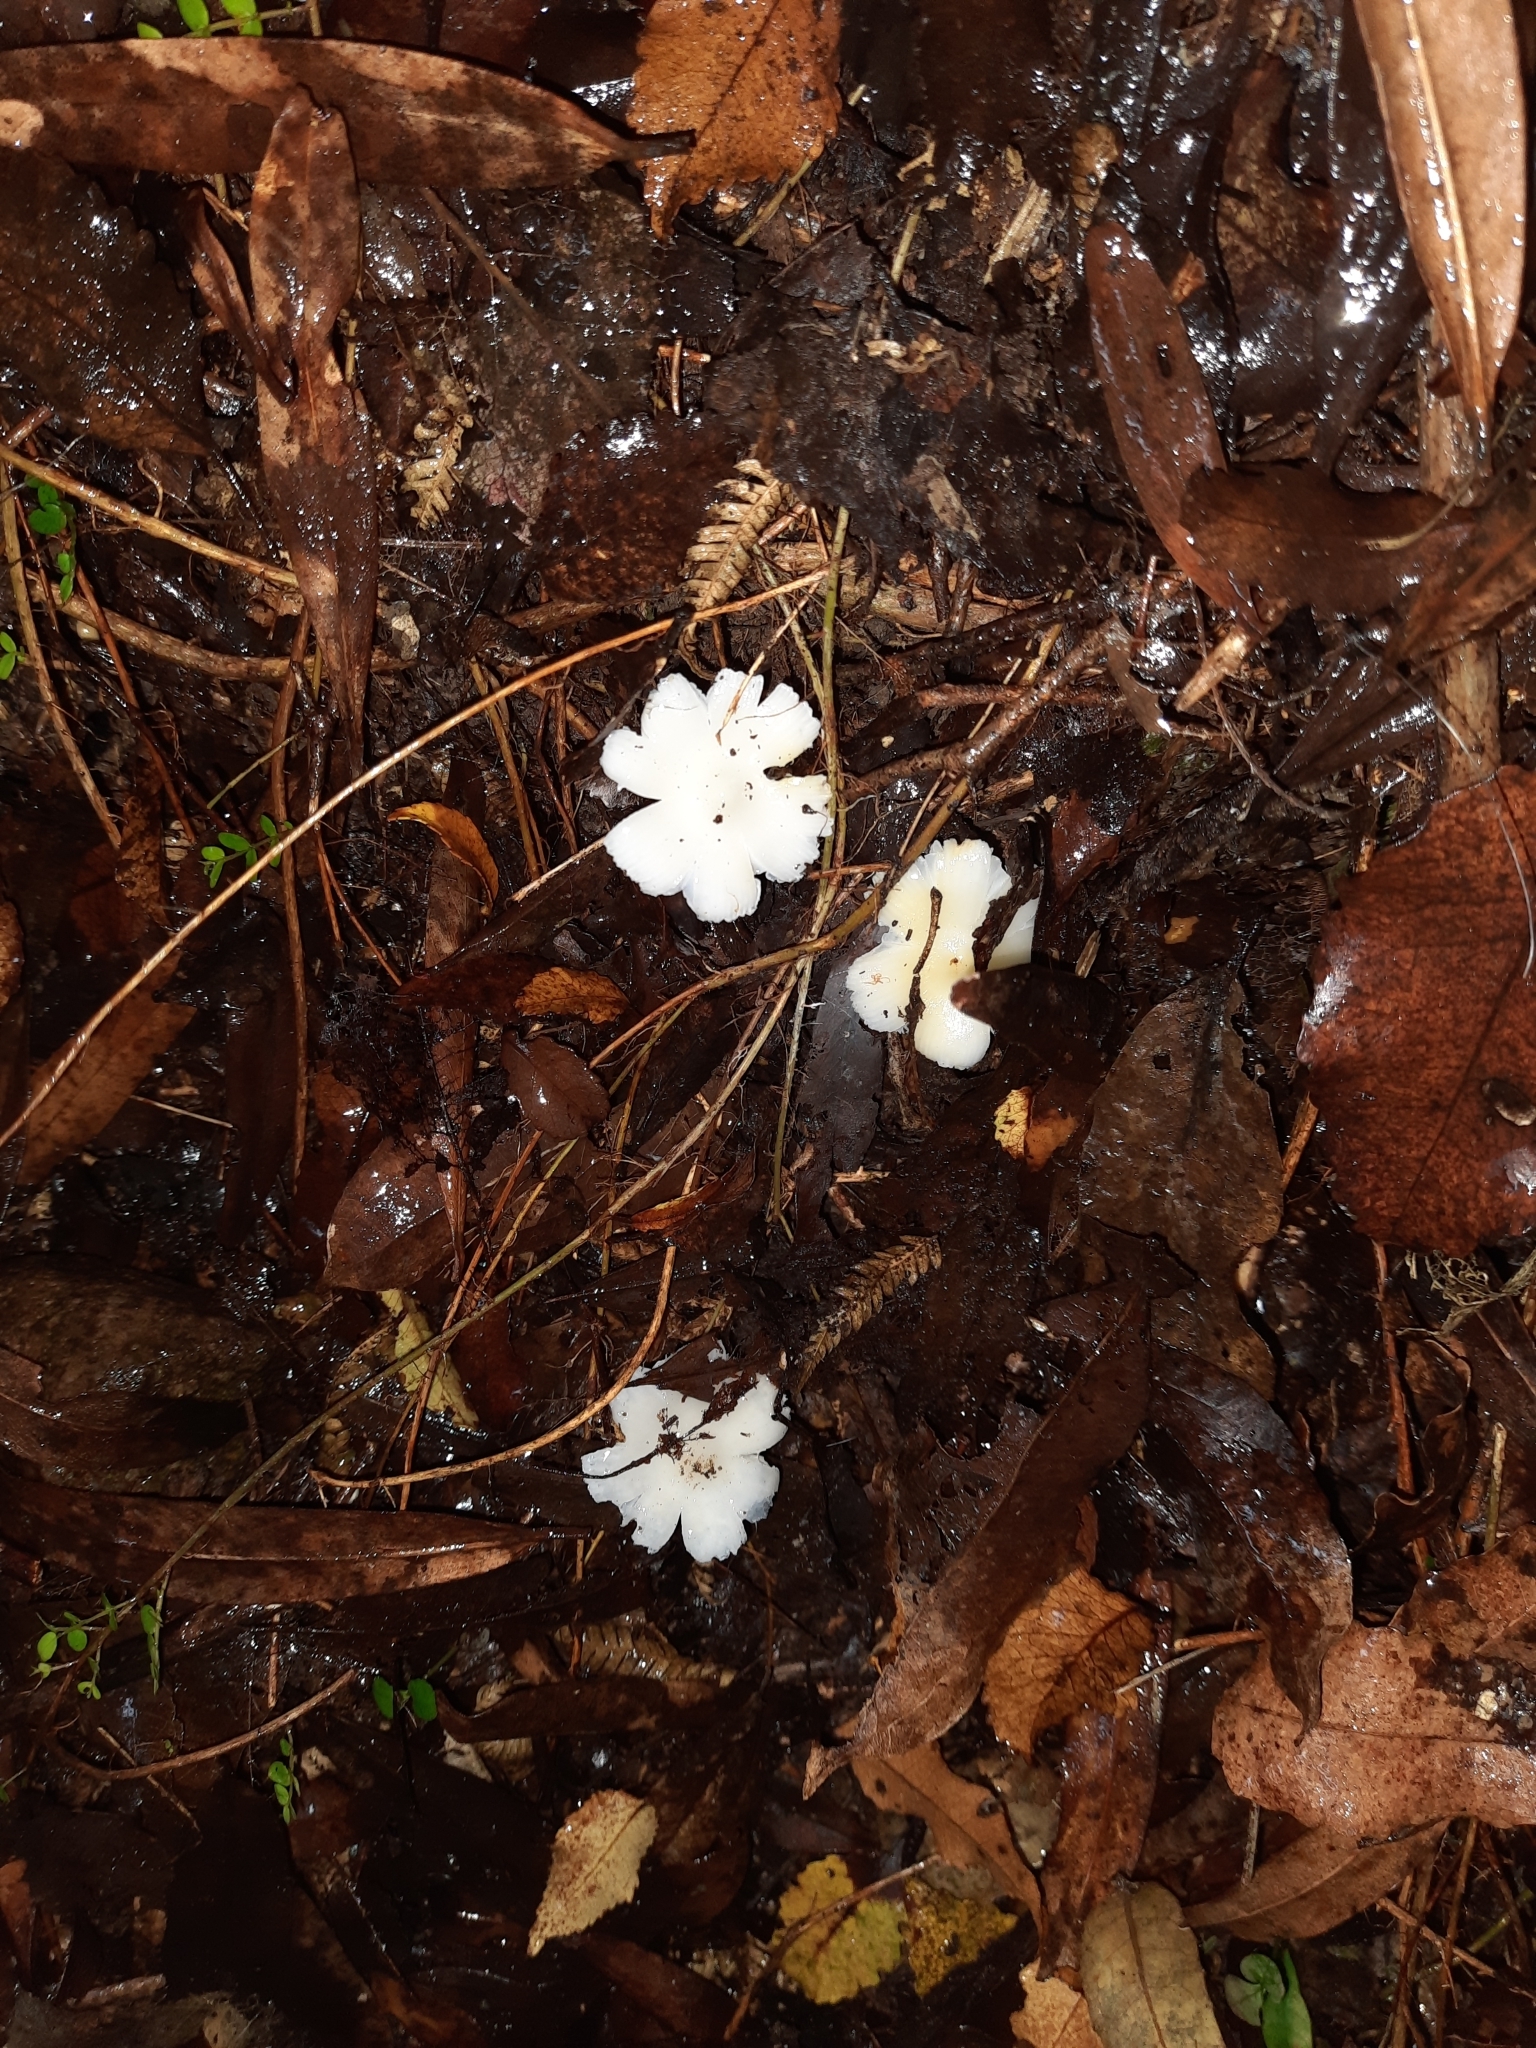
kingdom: Fungi
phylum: Basidiomycota
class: Agaricomycetes
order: Agaricales
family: Hygrophoraceae
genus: Humidicutis
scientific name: Humidicutis mavis
